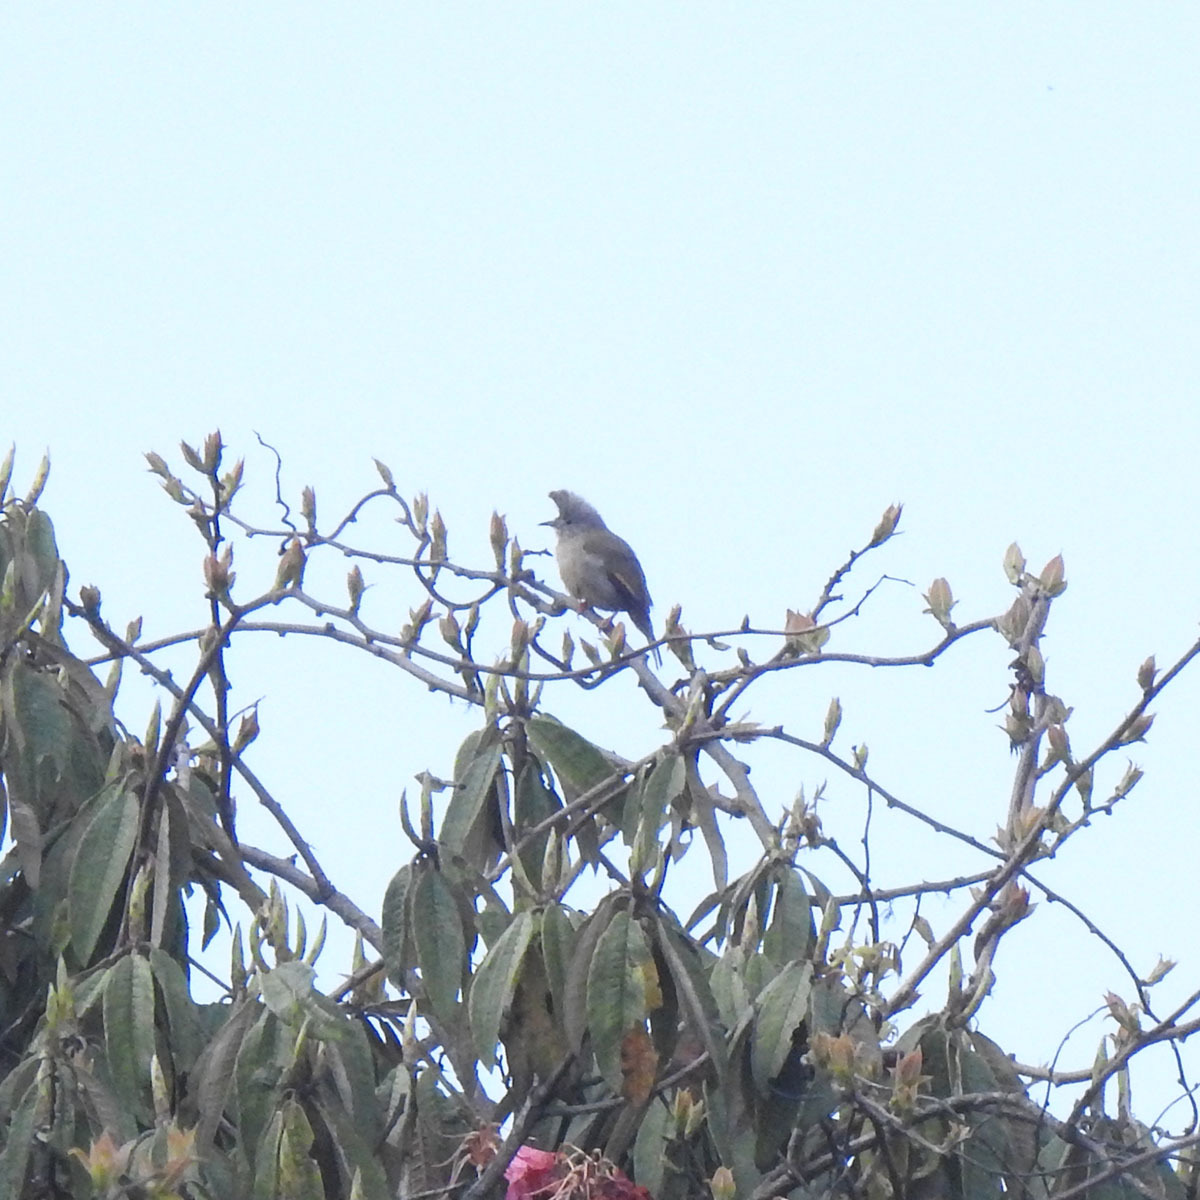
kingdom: Animalia
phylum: Chordata
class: Aves
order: Passeriformes
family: Zosteropidae
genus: Yuhina
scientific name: Yuhina gularis
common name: Stripe-throated yuhina
